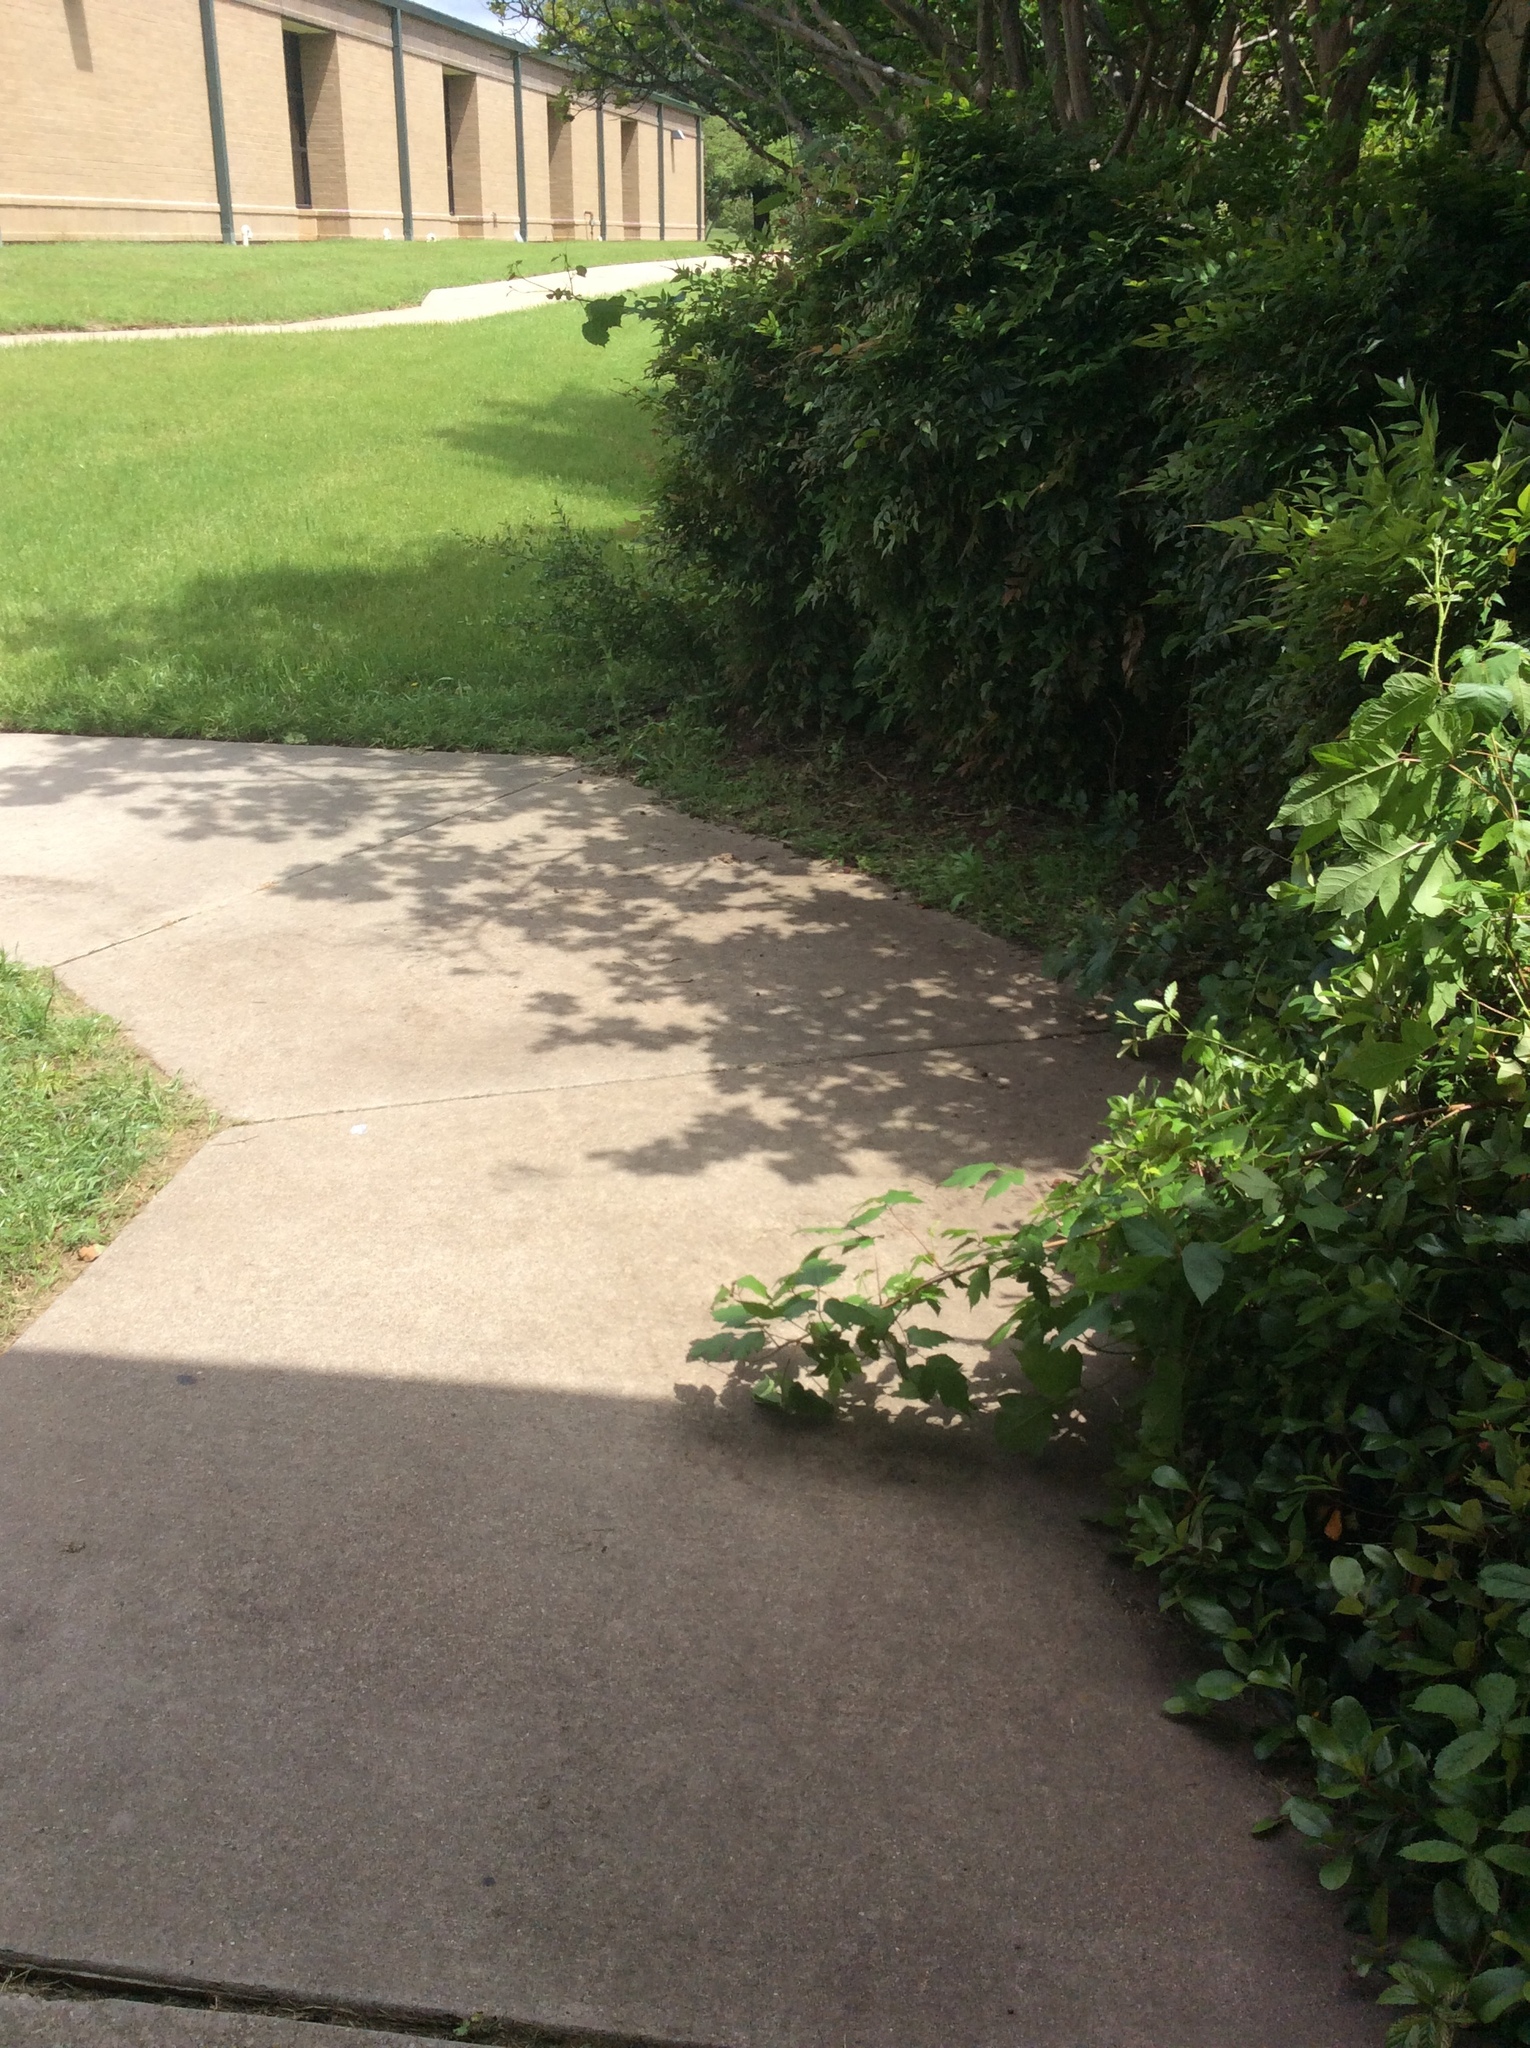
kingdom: Plantae
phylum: Tracheophyta
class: Magnoliopsida
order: Sapindales
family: Anacardiaceae
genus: Toxicodendron
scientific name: Toxicodendron radicans
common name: Poison ivy
